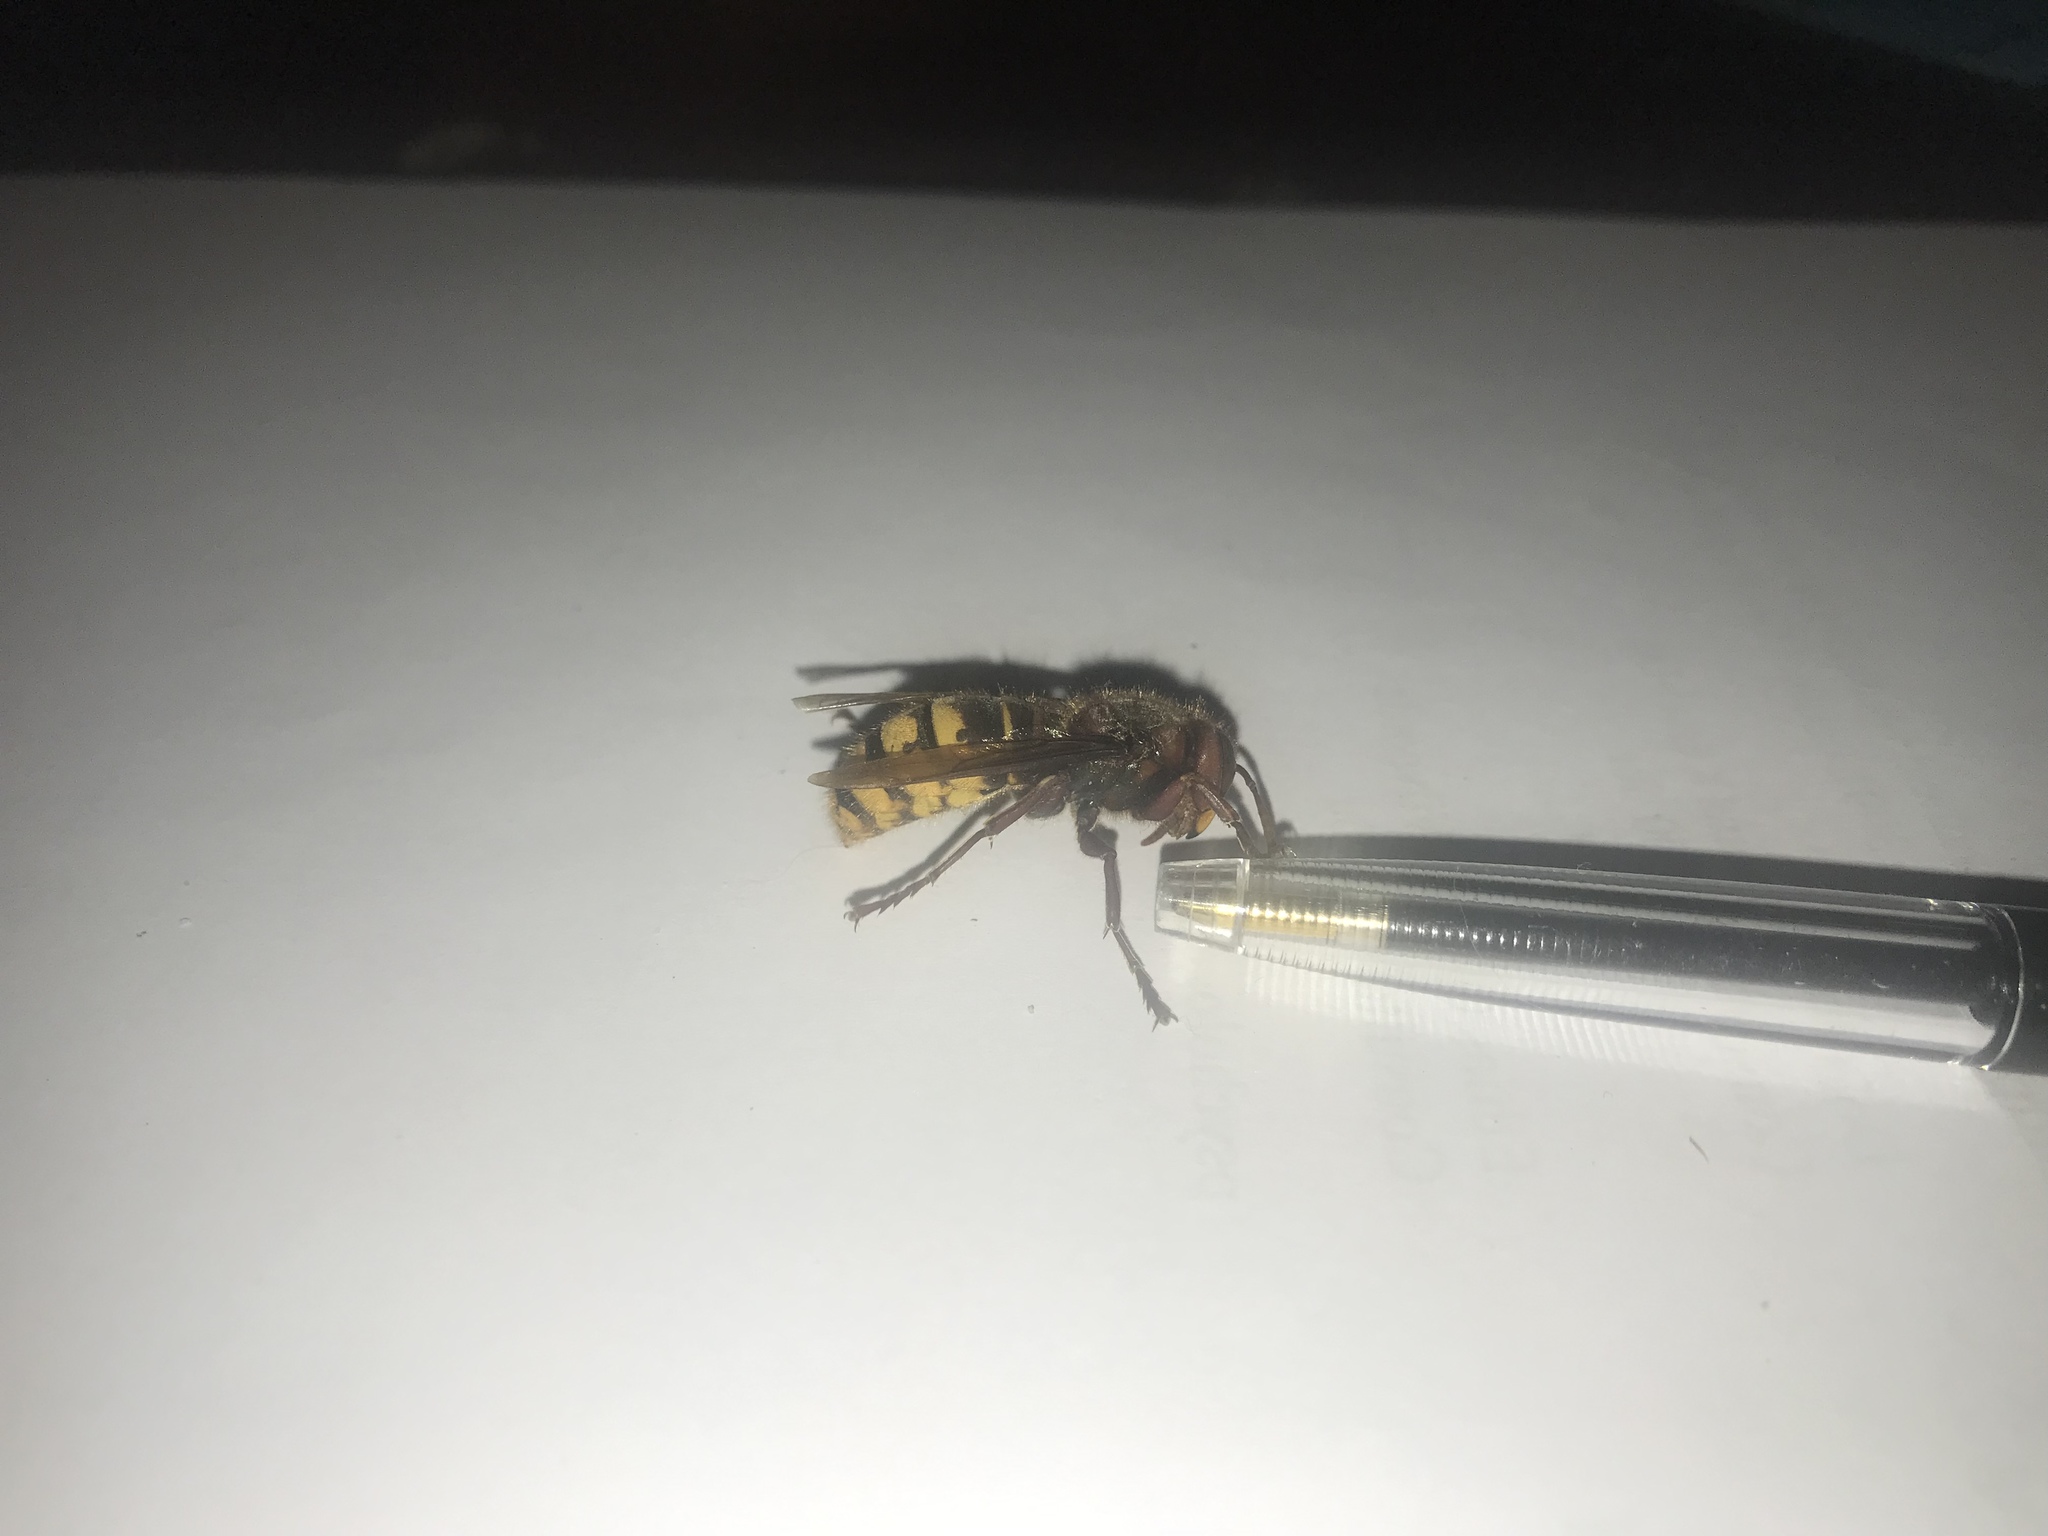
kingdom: Animalia
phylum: Arthropoda
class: Insecta
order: Hymenoptera
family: Vespidae
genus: Vespa
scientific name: Vespa crabro
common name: Hornet
